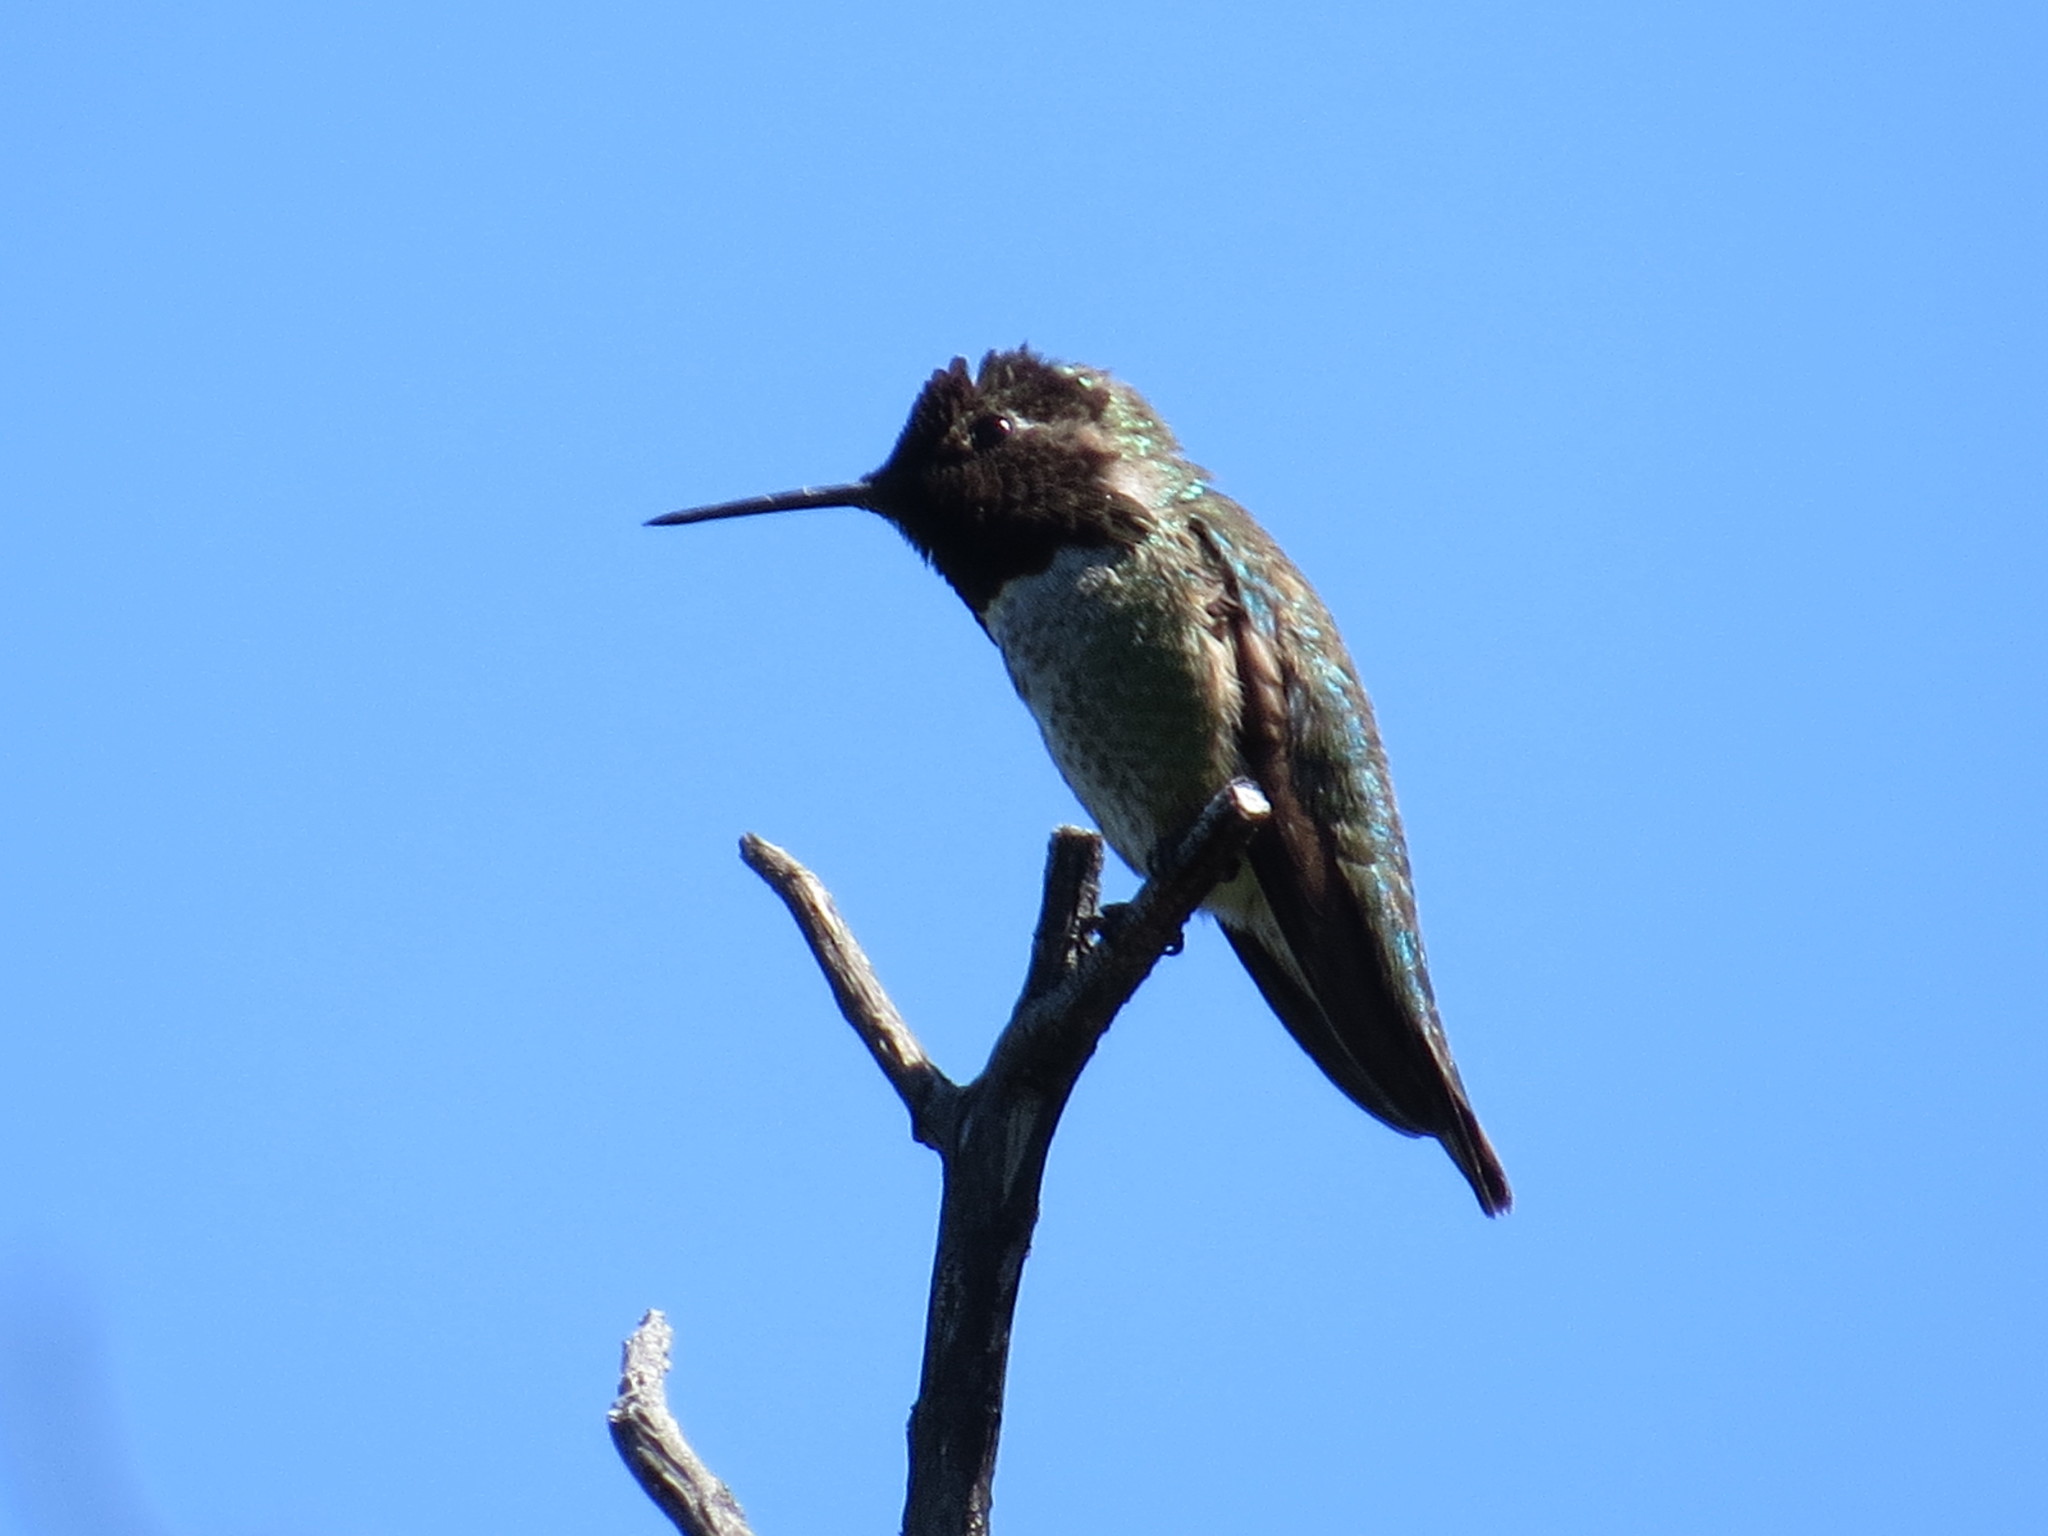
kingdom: Animalia
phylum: Chordata
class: Aves
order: Apodiformes
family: Trochilidae
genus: Calypte
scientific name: Calypte anna
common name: Anna's hummingbird
